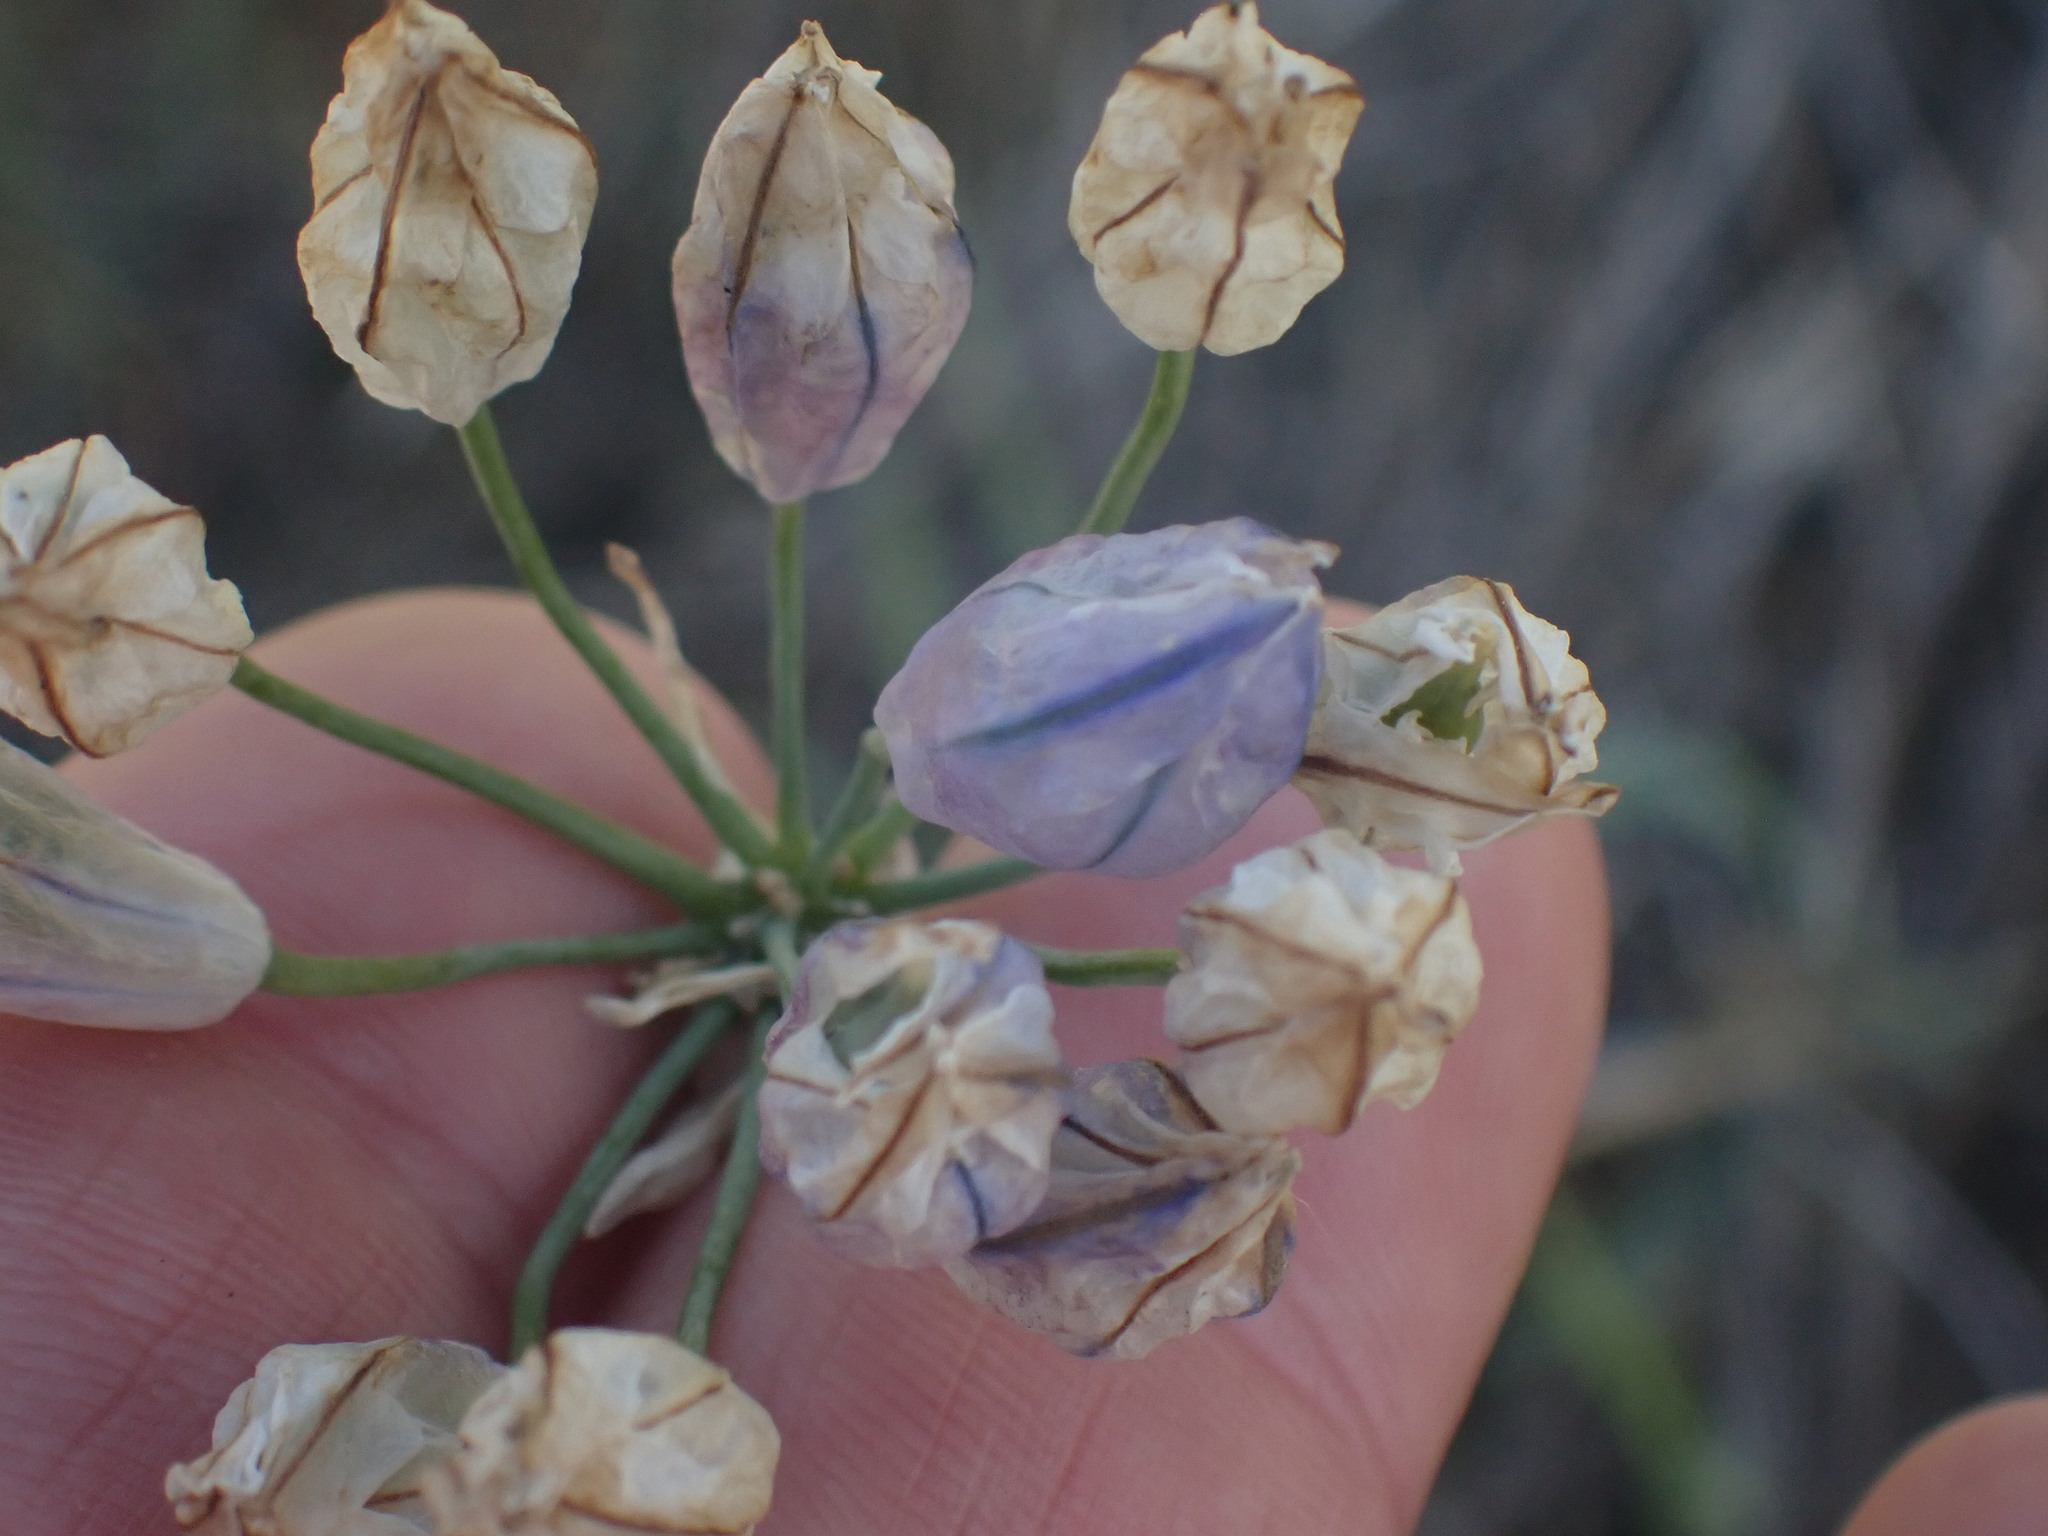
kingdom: Plantae
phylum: Tracheophyta
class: Liliopsida
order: Asparagales
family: Asparagaceae
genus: Triteleia
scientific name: Triteleia grandiflora
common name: Wild hyacinth
